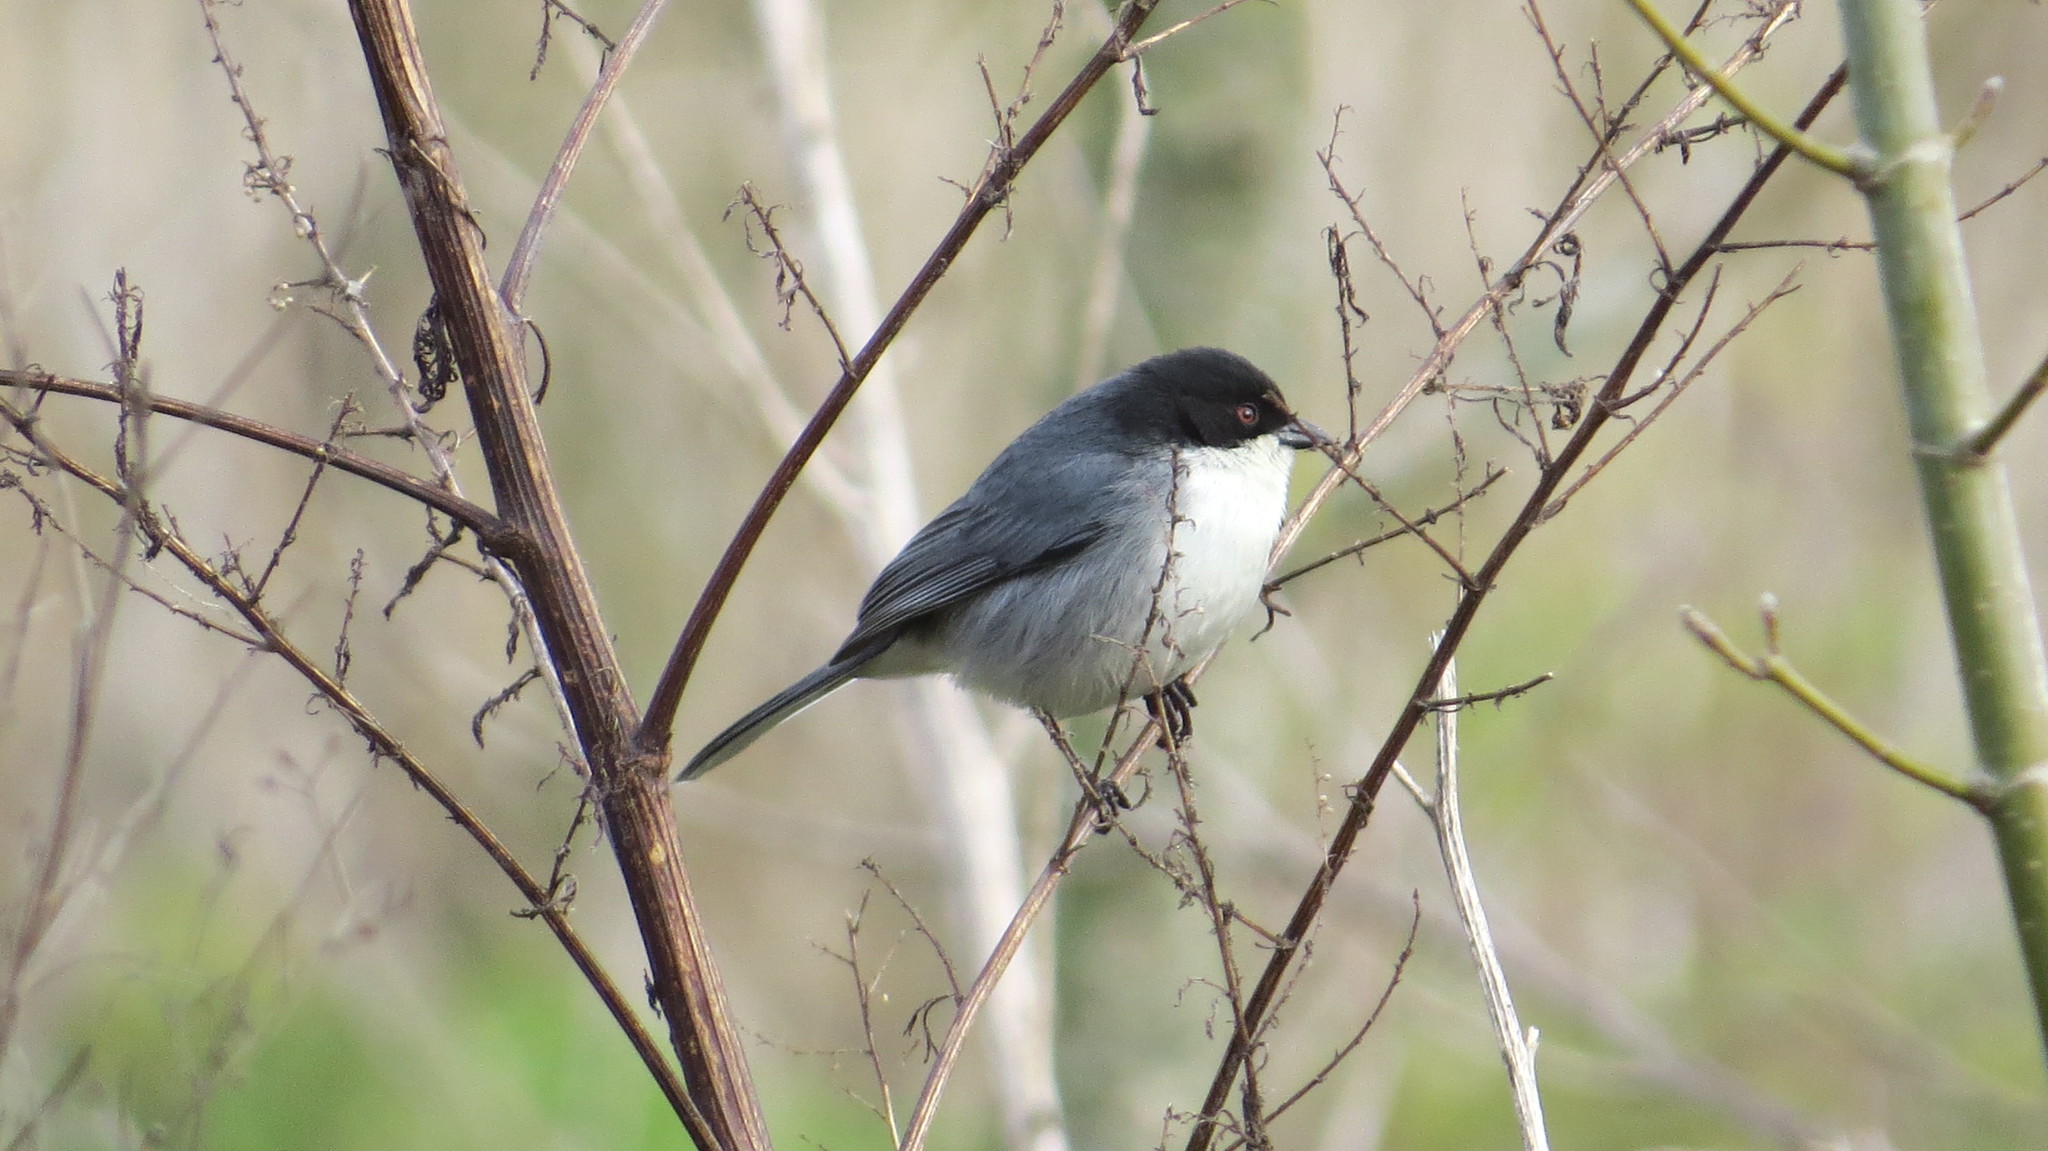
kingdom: Animalia
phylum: Chordata
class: Aves
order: Passeriformes
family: Thraupidae
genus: Microspingus
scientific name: Microspingus melanoleucus
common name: Black-capped warbling-finch
